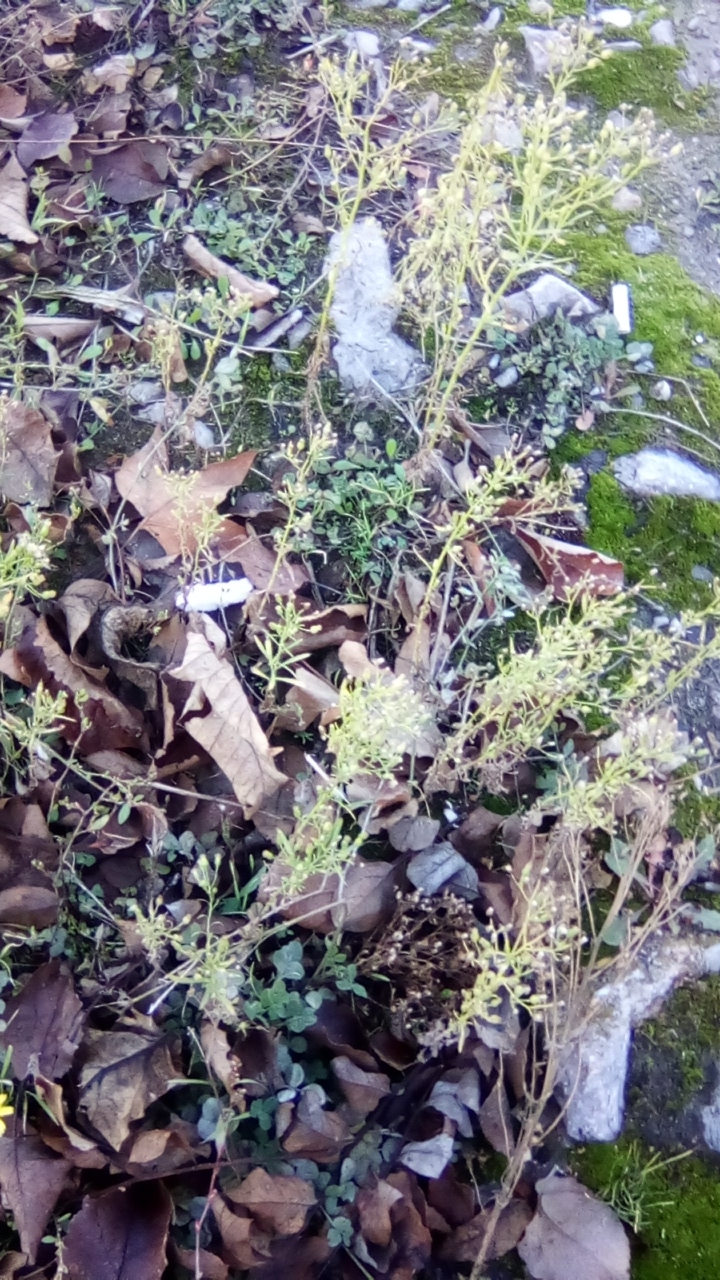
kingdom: Plantae
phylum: Tracheophyta
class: Magnoliopsida
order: Asterales
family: Asteraceae
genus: Erigeron
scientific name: Erigeron canadensis
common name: Canadian fleabane
